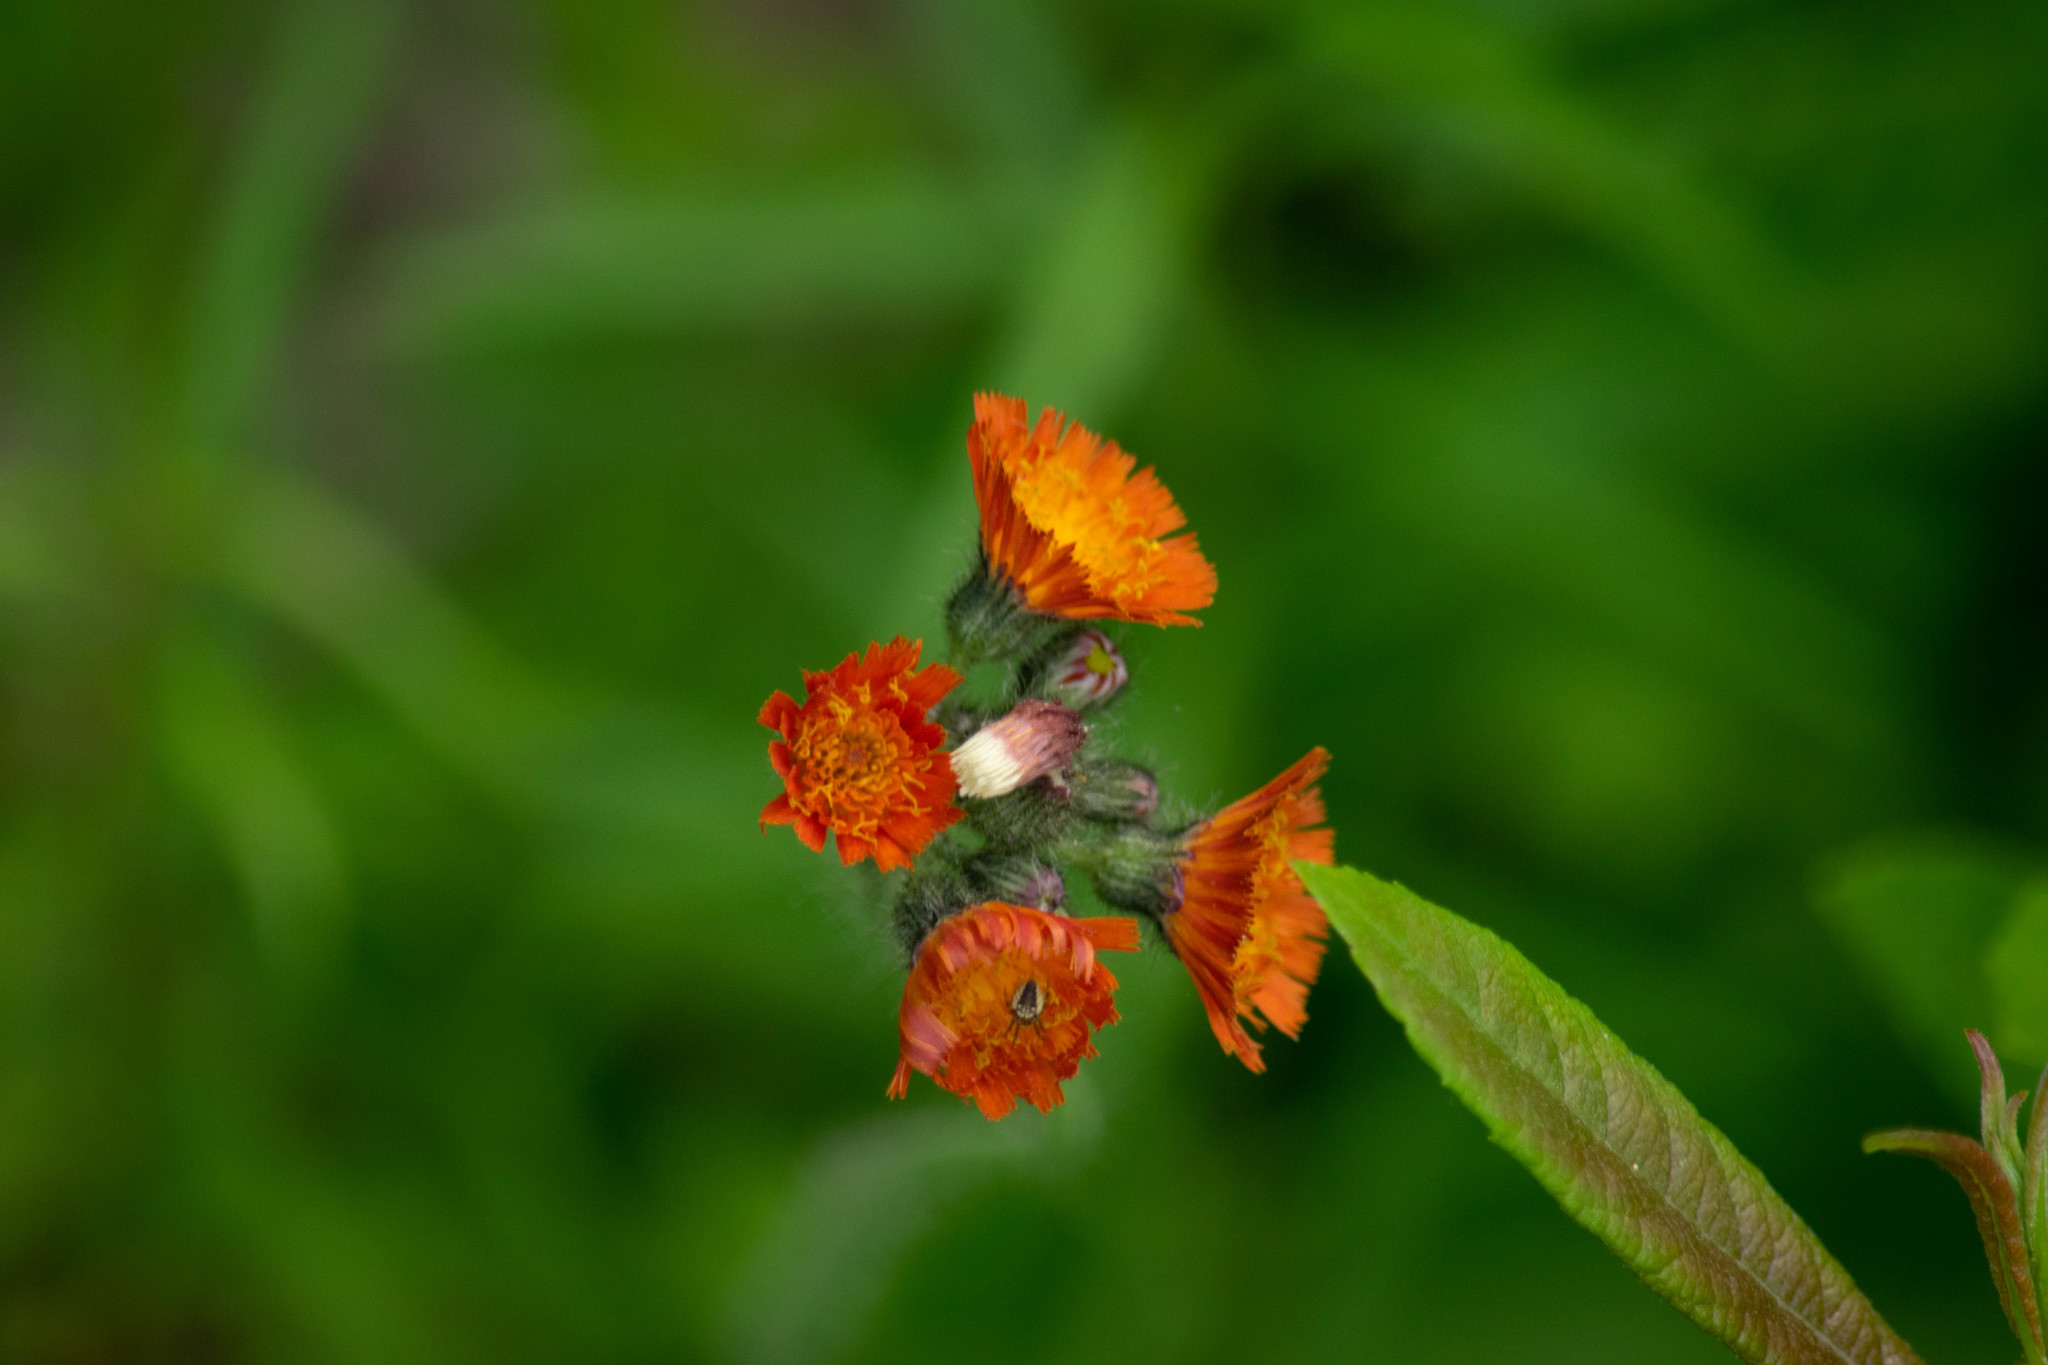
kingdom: Plantae
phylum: Tracheophyta
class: Magnoliopsida
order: Asterales
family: Asteraceae
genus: Pilosella
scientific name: Pilosella aurantiaca
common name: Fox-and-cubs
